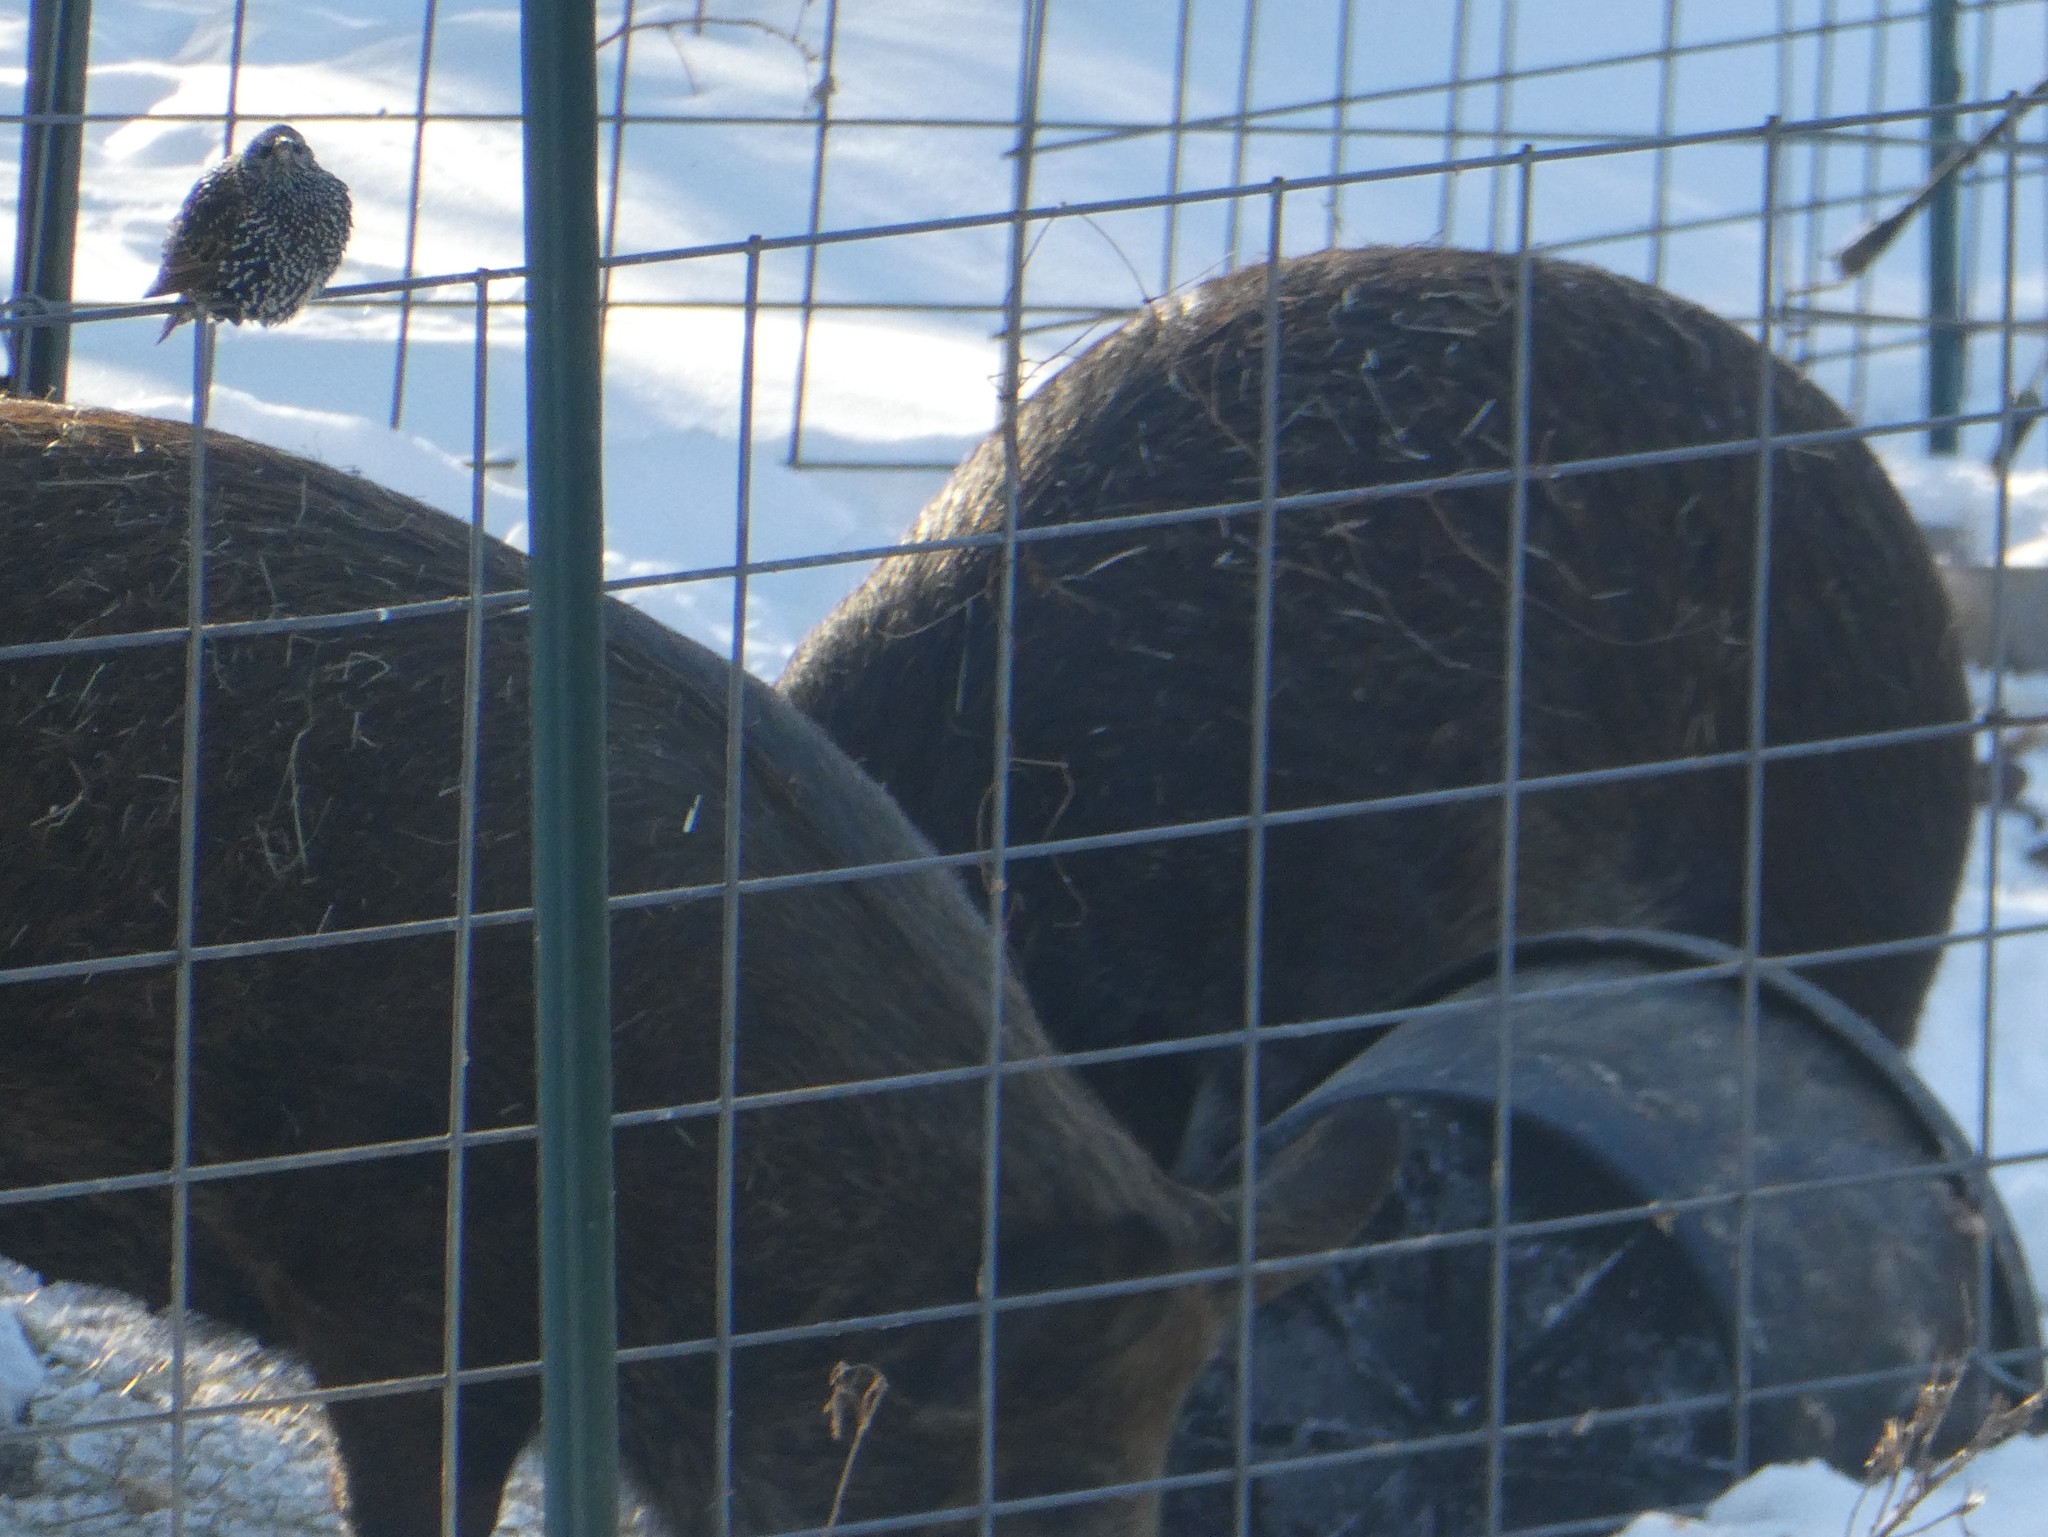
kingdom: Animalia
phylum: Chordata
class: Aves
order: Passeriformes
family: Sturnidae
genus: Sturnus
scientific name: Sturnus vulgaris
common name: Common starling
